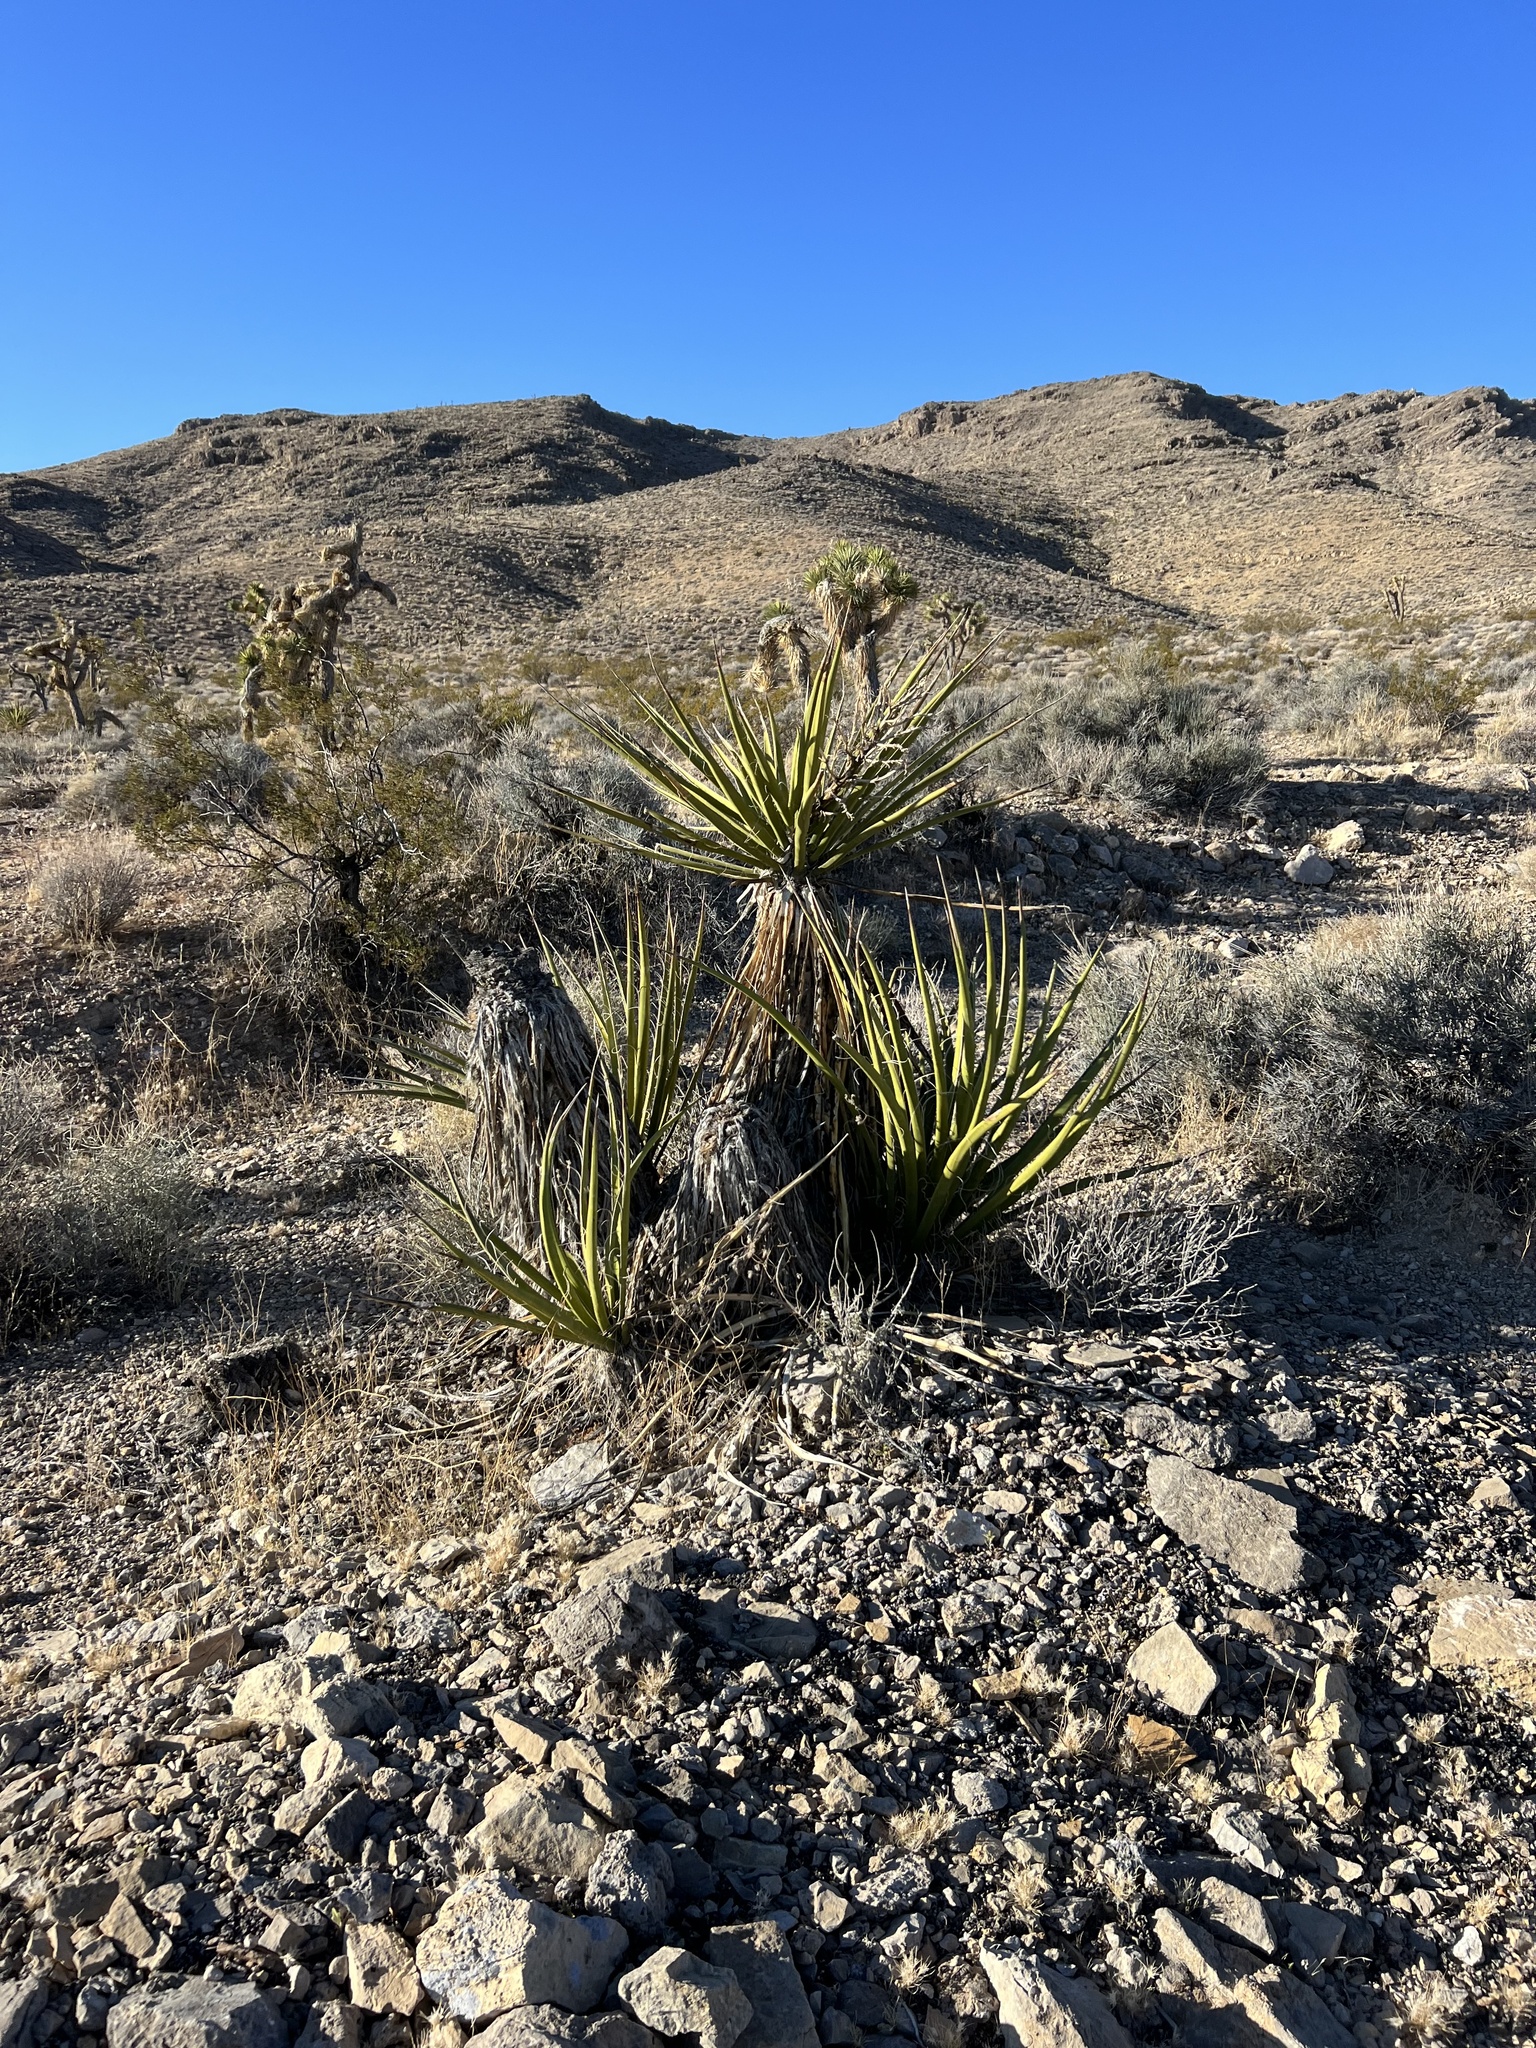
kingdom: Plantae
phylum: Tracheophyta
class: Liliopsida
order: Asparagales
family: Asparagaceae
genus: Yucca
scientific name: Yucca schidigera
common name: Mojave yucca
